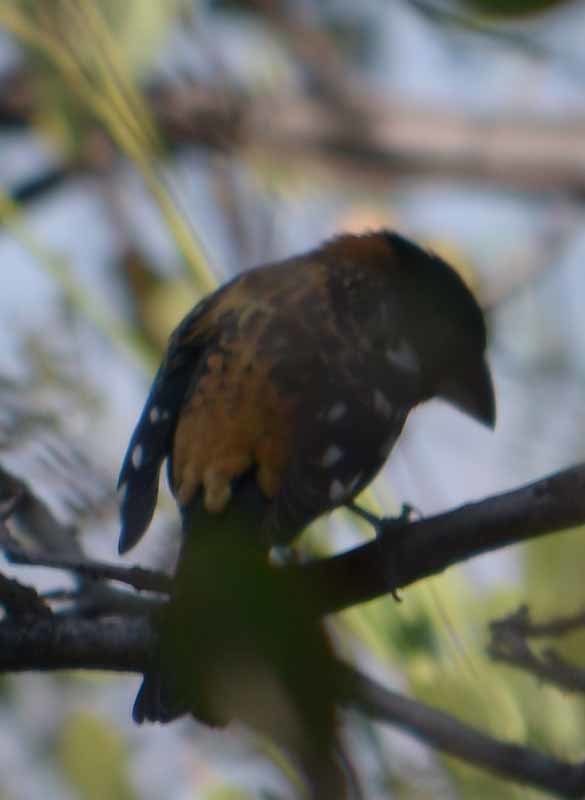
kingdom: Animalia
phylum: Chordata
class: Aves
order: Passeriformes
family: Cardinalidae
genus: Pheucticus
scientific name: Pheucticus melanocephalus
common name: Black-headed grosbeak
